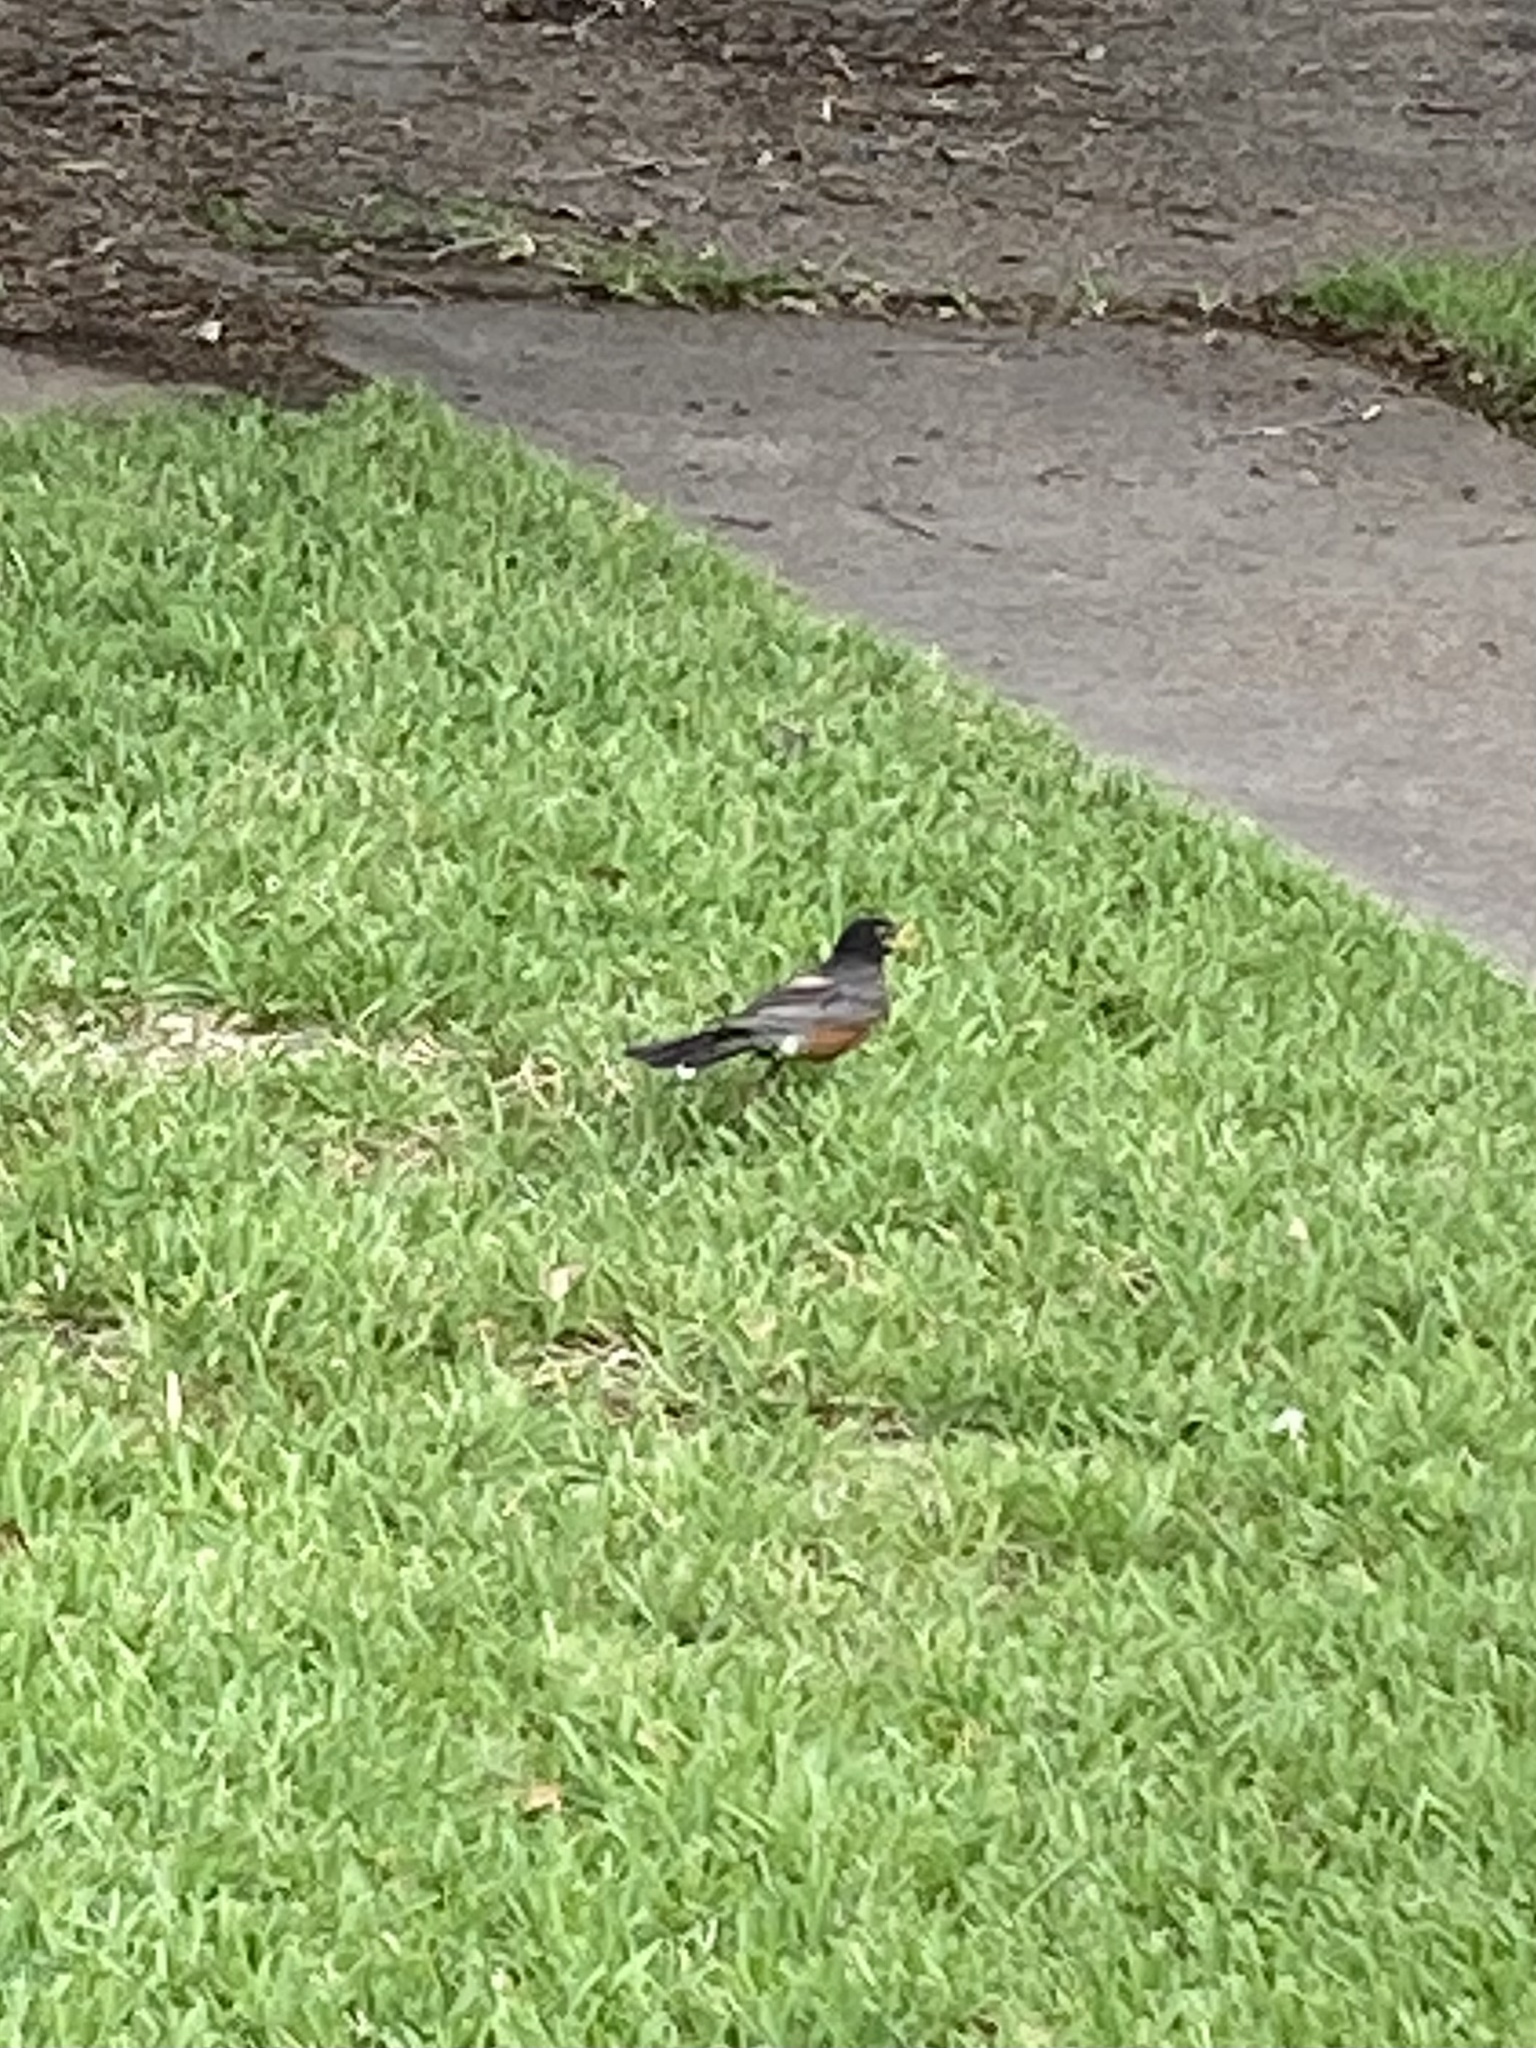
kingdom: Animalia
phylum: Chordata
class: Aves
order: Passeriformes
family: Turdidae
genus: Turdus
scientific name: Turdus migratorius
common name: American robin
